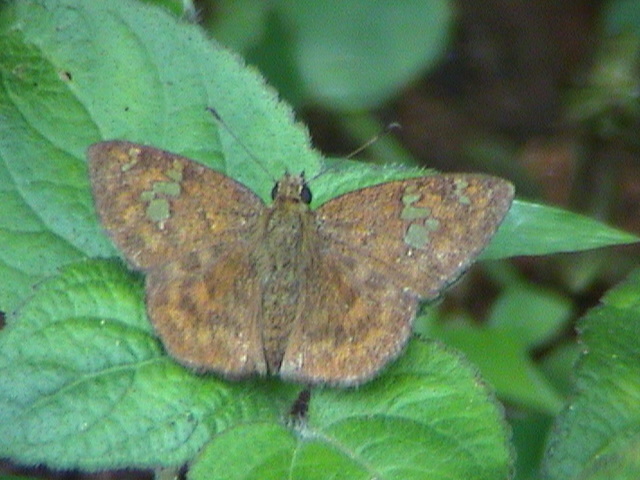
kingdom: Animalia
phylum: Arthropoda
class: Insecta
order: Lepidoptera
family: Hesperiidae
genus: Pseudocoladenia
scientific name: Pseudocoladenia dan
